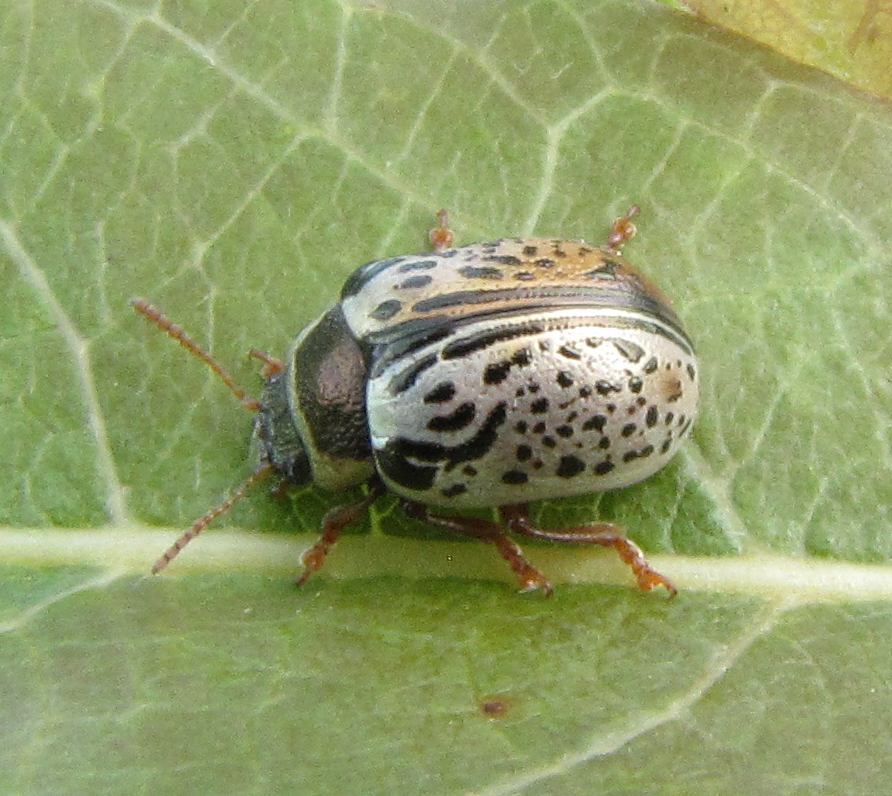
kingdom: Animalia
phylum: Arthropoda
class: Insecta
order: Coleoptera
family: Chrysomelidae
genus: Calligrapha
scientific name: Calligrapha multipunctata
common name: Common willow calligrapher beetle
